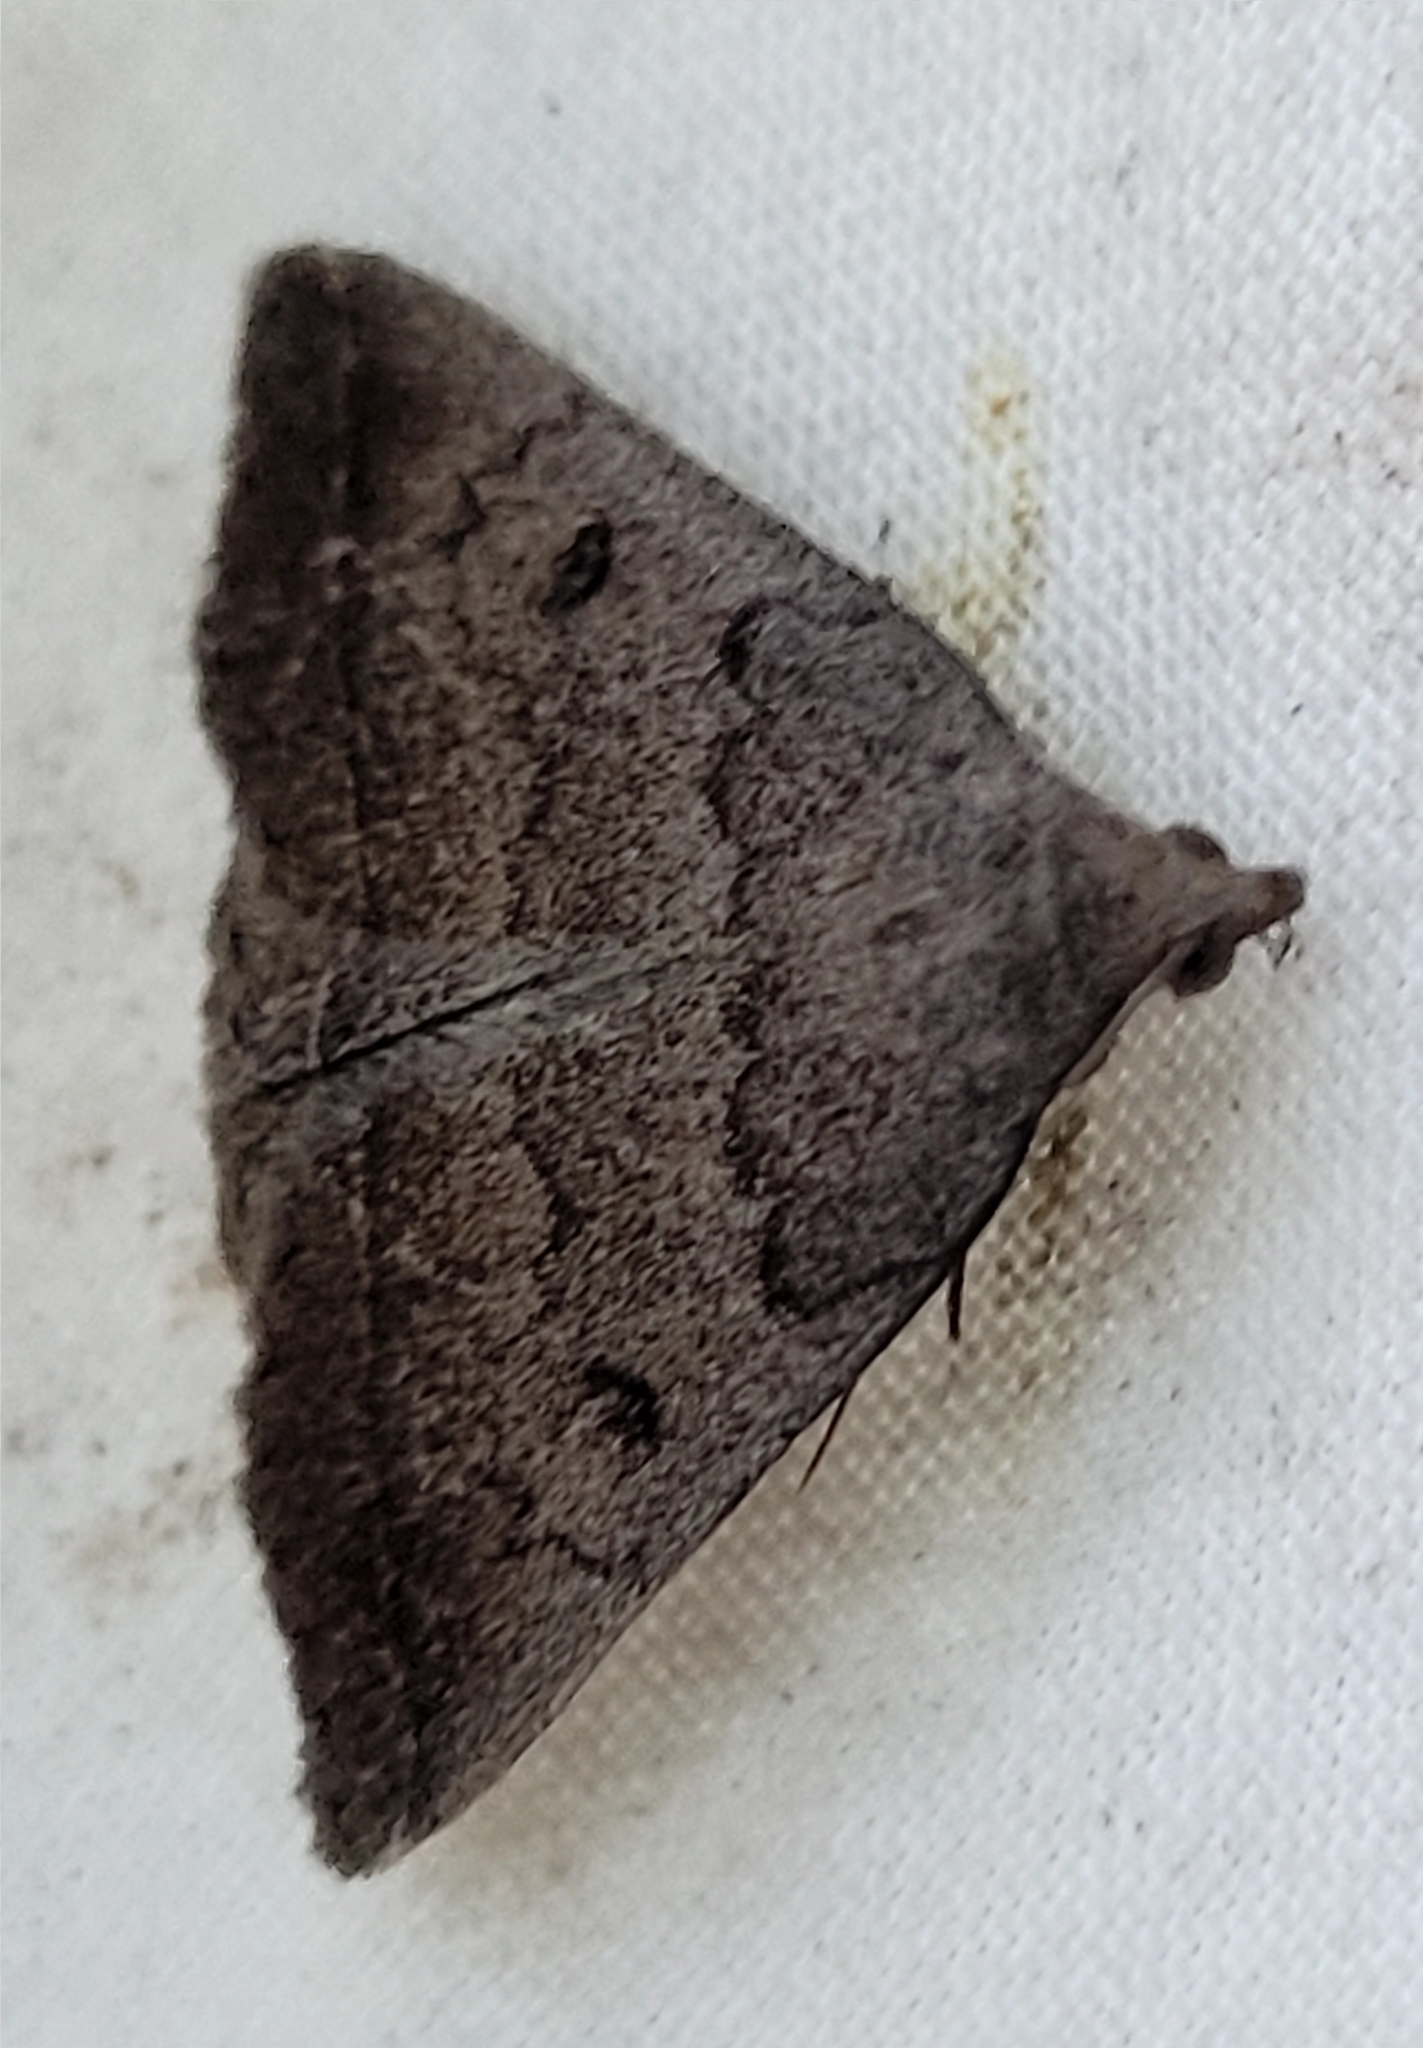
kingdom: Animalia
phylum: Arthropoda
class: Insecta
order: Lepidoptera
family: Erebidae
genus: Zanclognatha
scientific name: Zanclognatha jacchusalis
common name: Yellowish zanclognatha
